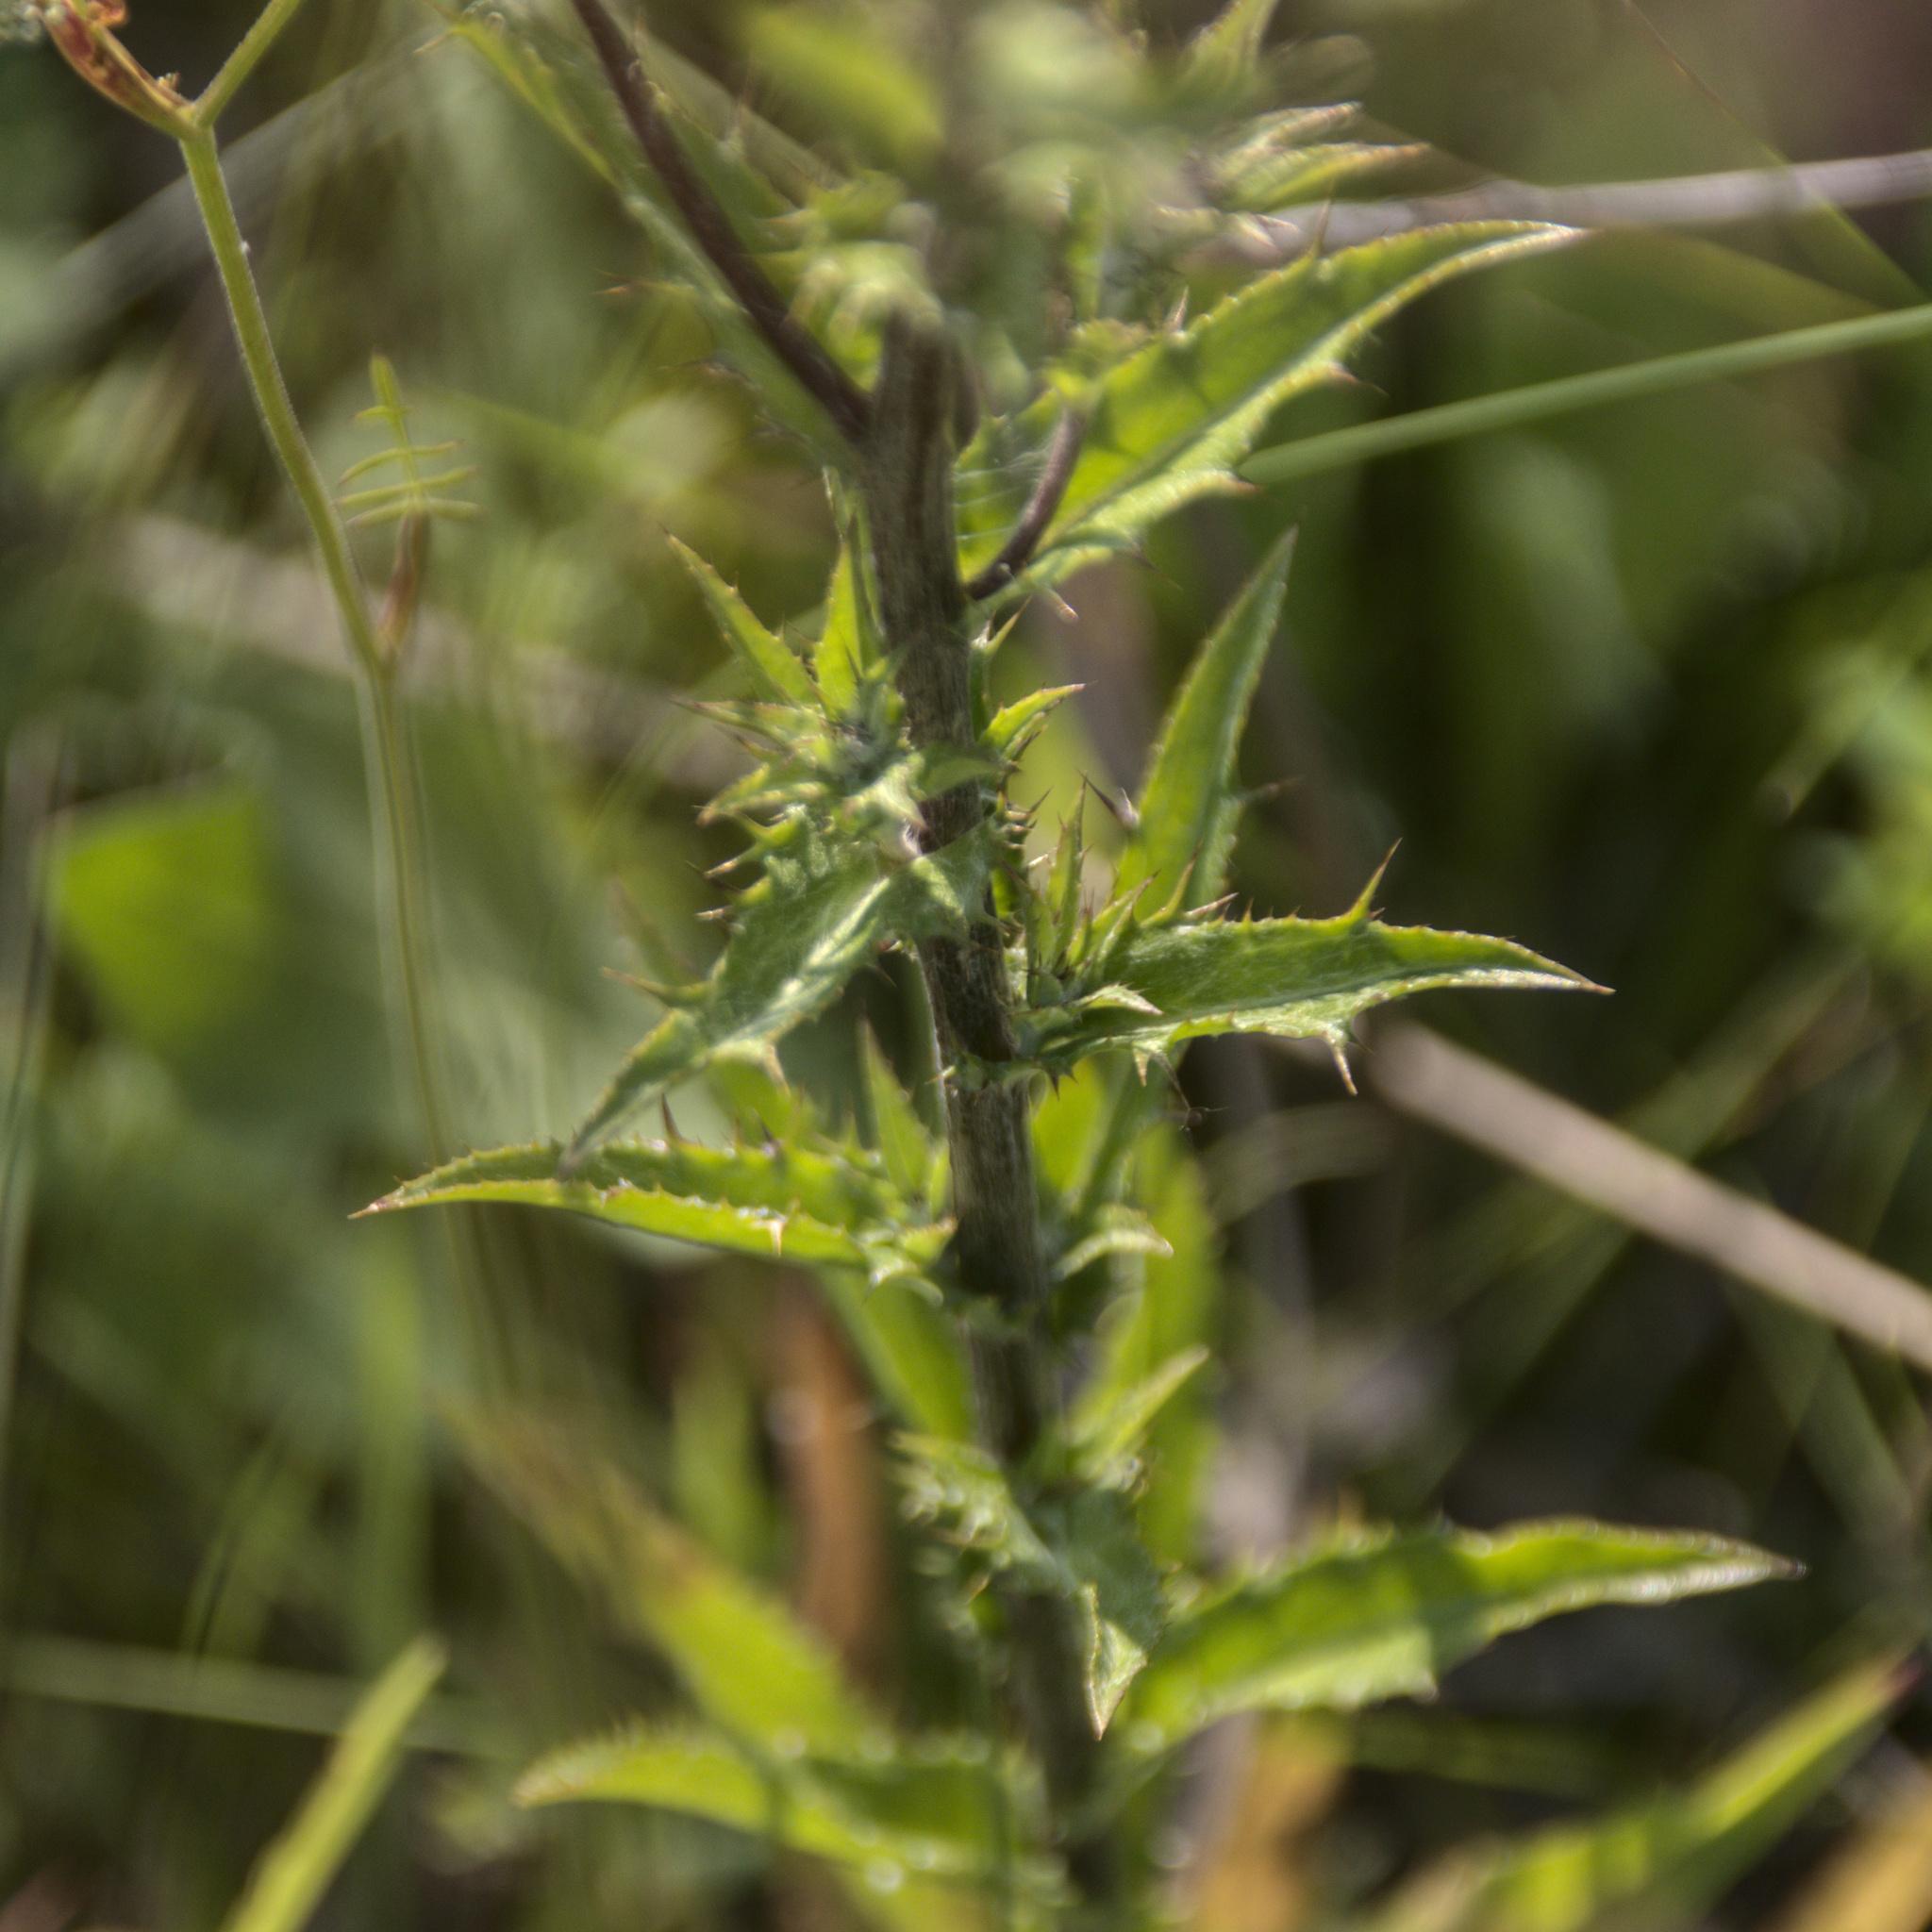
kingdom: Plantae
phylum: Tracheophyta
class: Magnoliopsida
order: Asterales
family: Asteraceae
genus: Carlina
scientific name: Carlina biebersteinii
